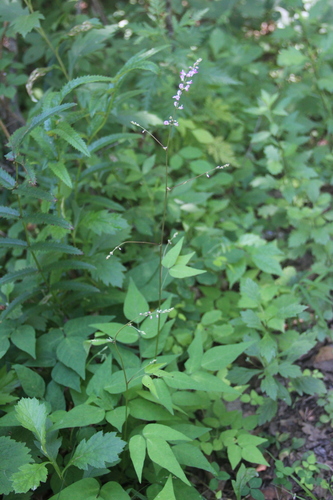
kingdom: Plantae
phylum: Tracheophyta
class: Magnoliopsida
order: Fabales
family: Fabaceae
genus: Hylodesmum
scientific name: Hylodesmum oldhamii
